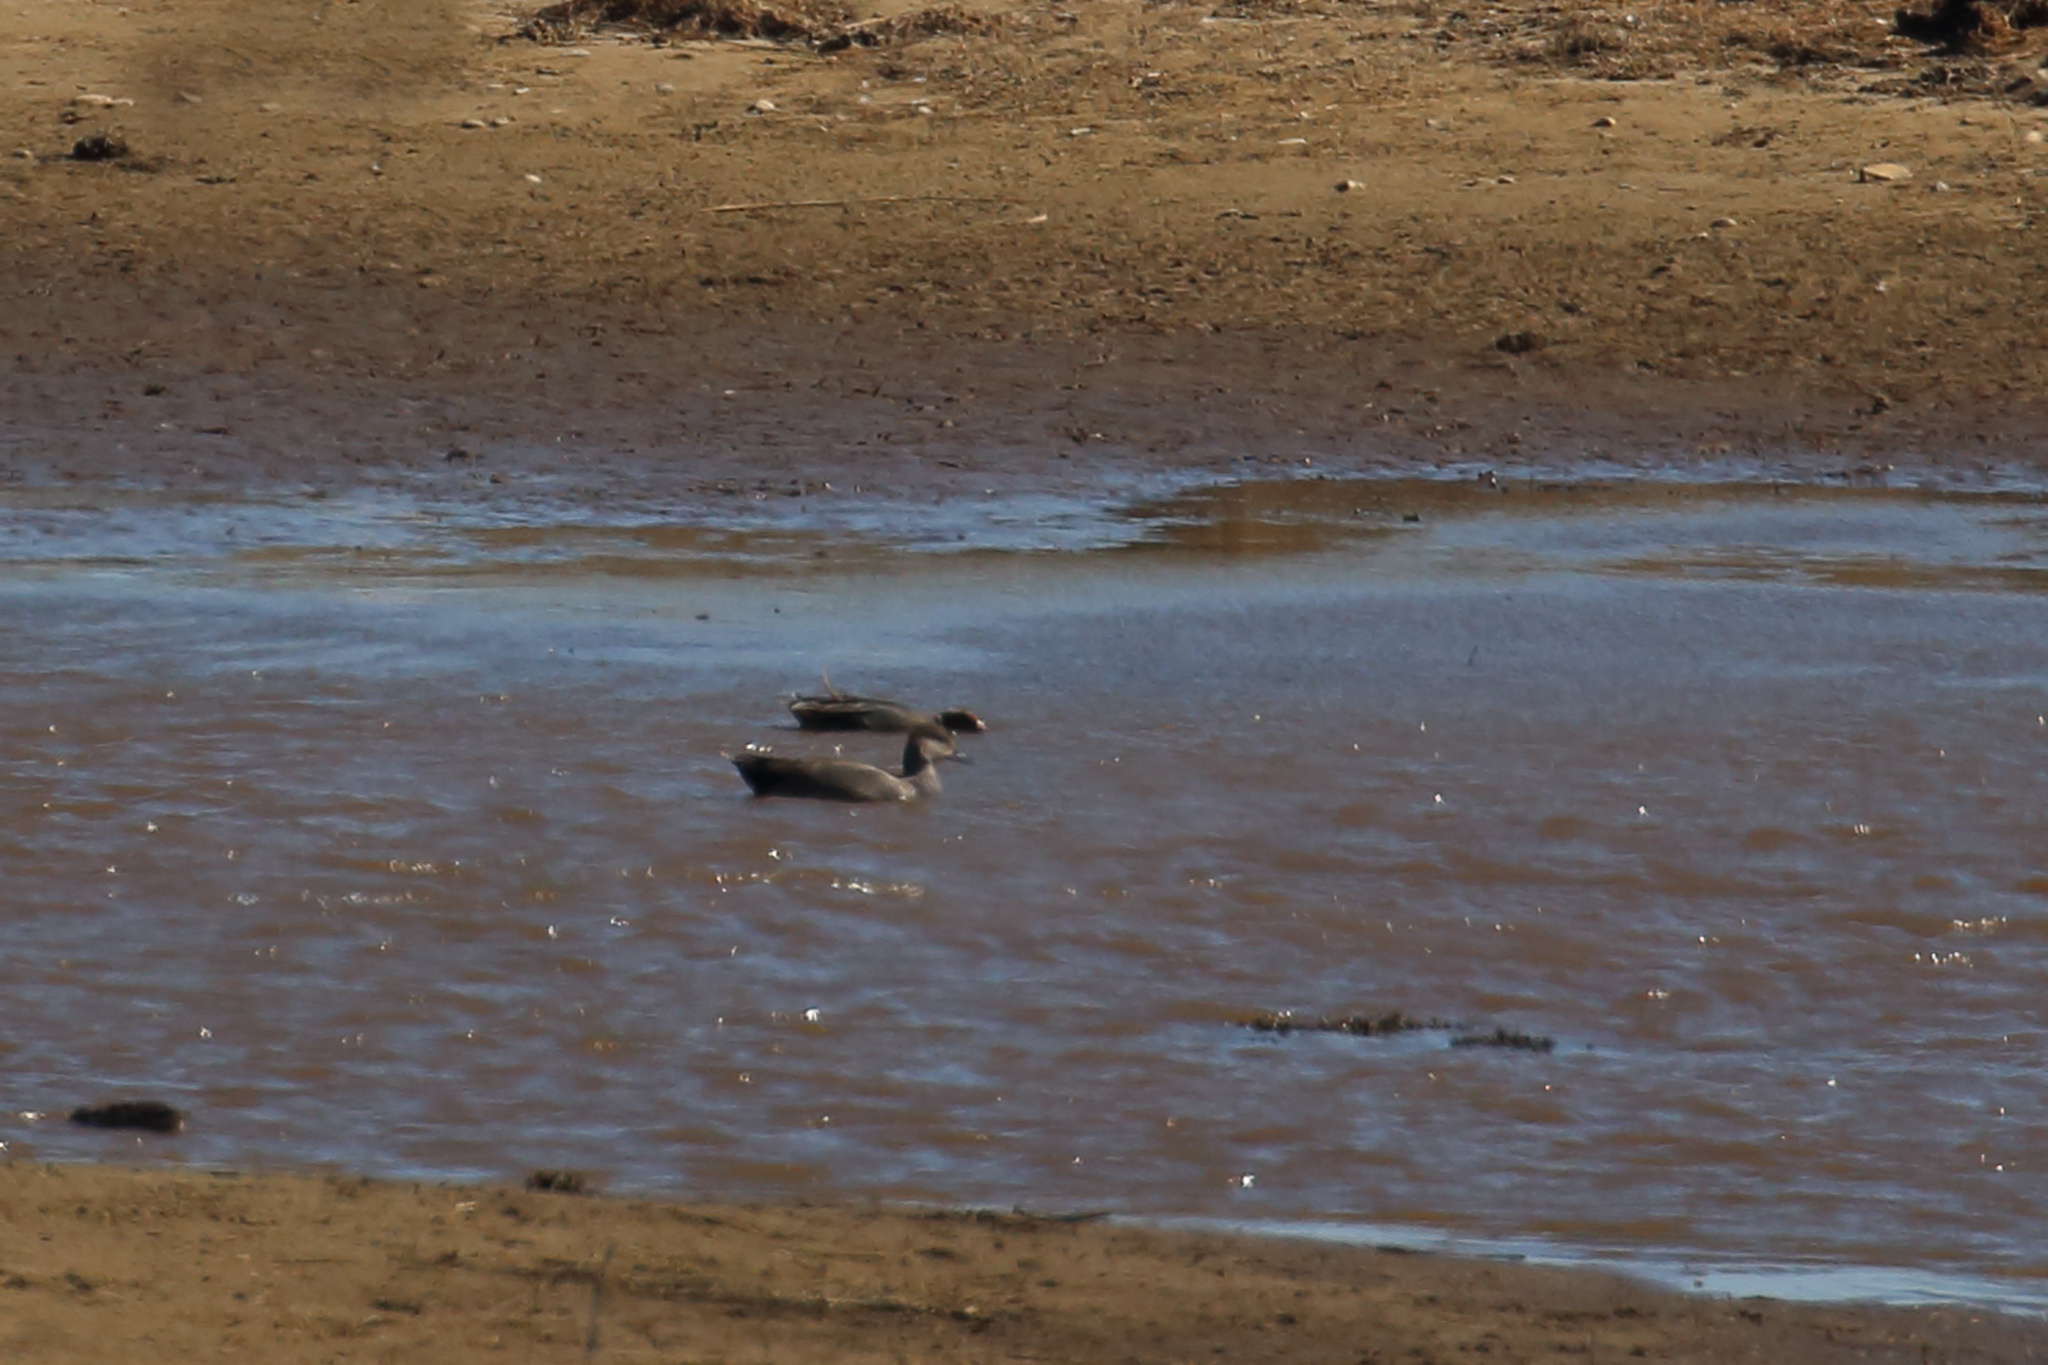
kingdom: Animalia
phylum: Chordata
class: Aves
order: Anseriformes
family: Anatidae
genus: Mareca
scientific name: Mareca strepera
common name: Gadwall
